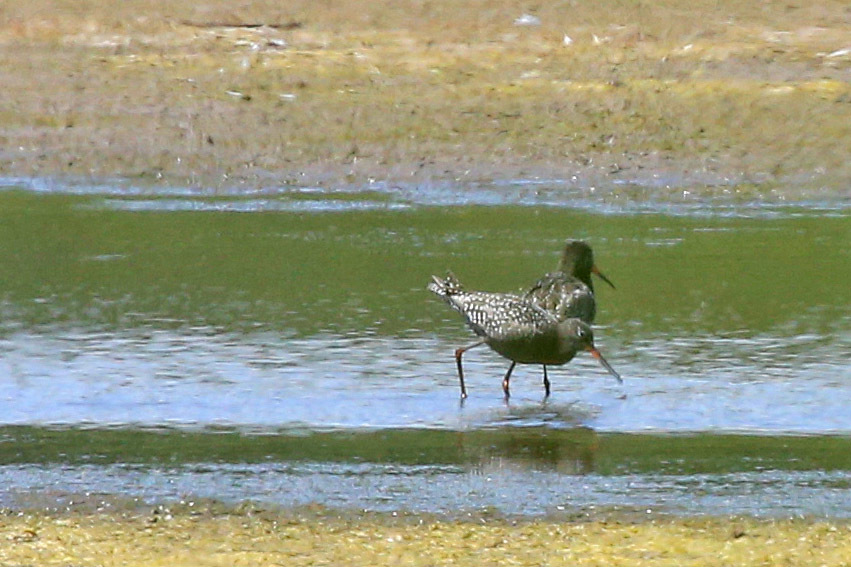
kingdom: Animalia
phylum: Chordata
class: Aves
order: Charadriiformes
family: Scolopacidae
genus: Tringa
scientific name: Tringa erythropus
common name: Spotted redshank
